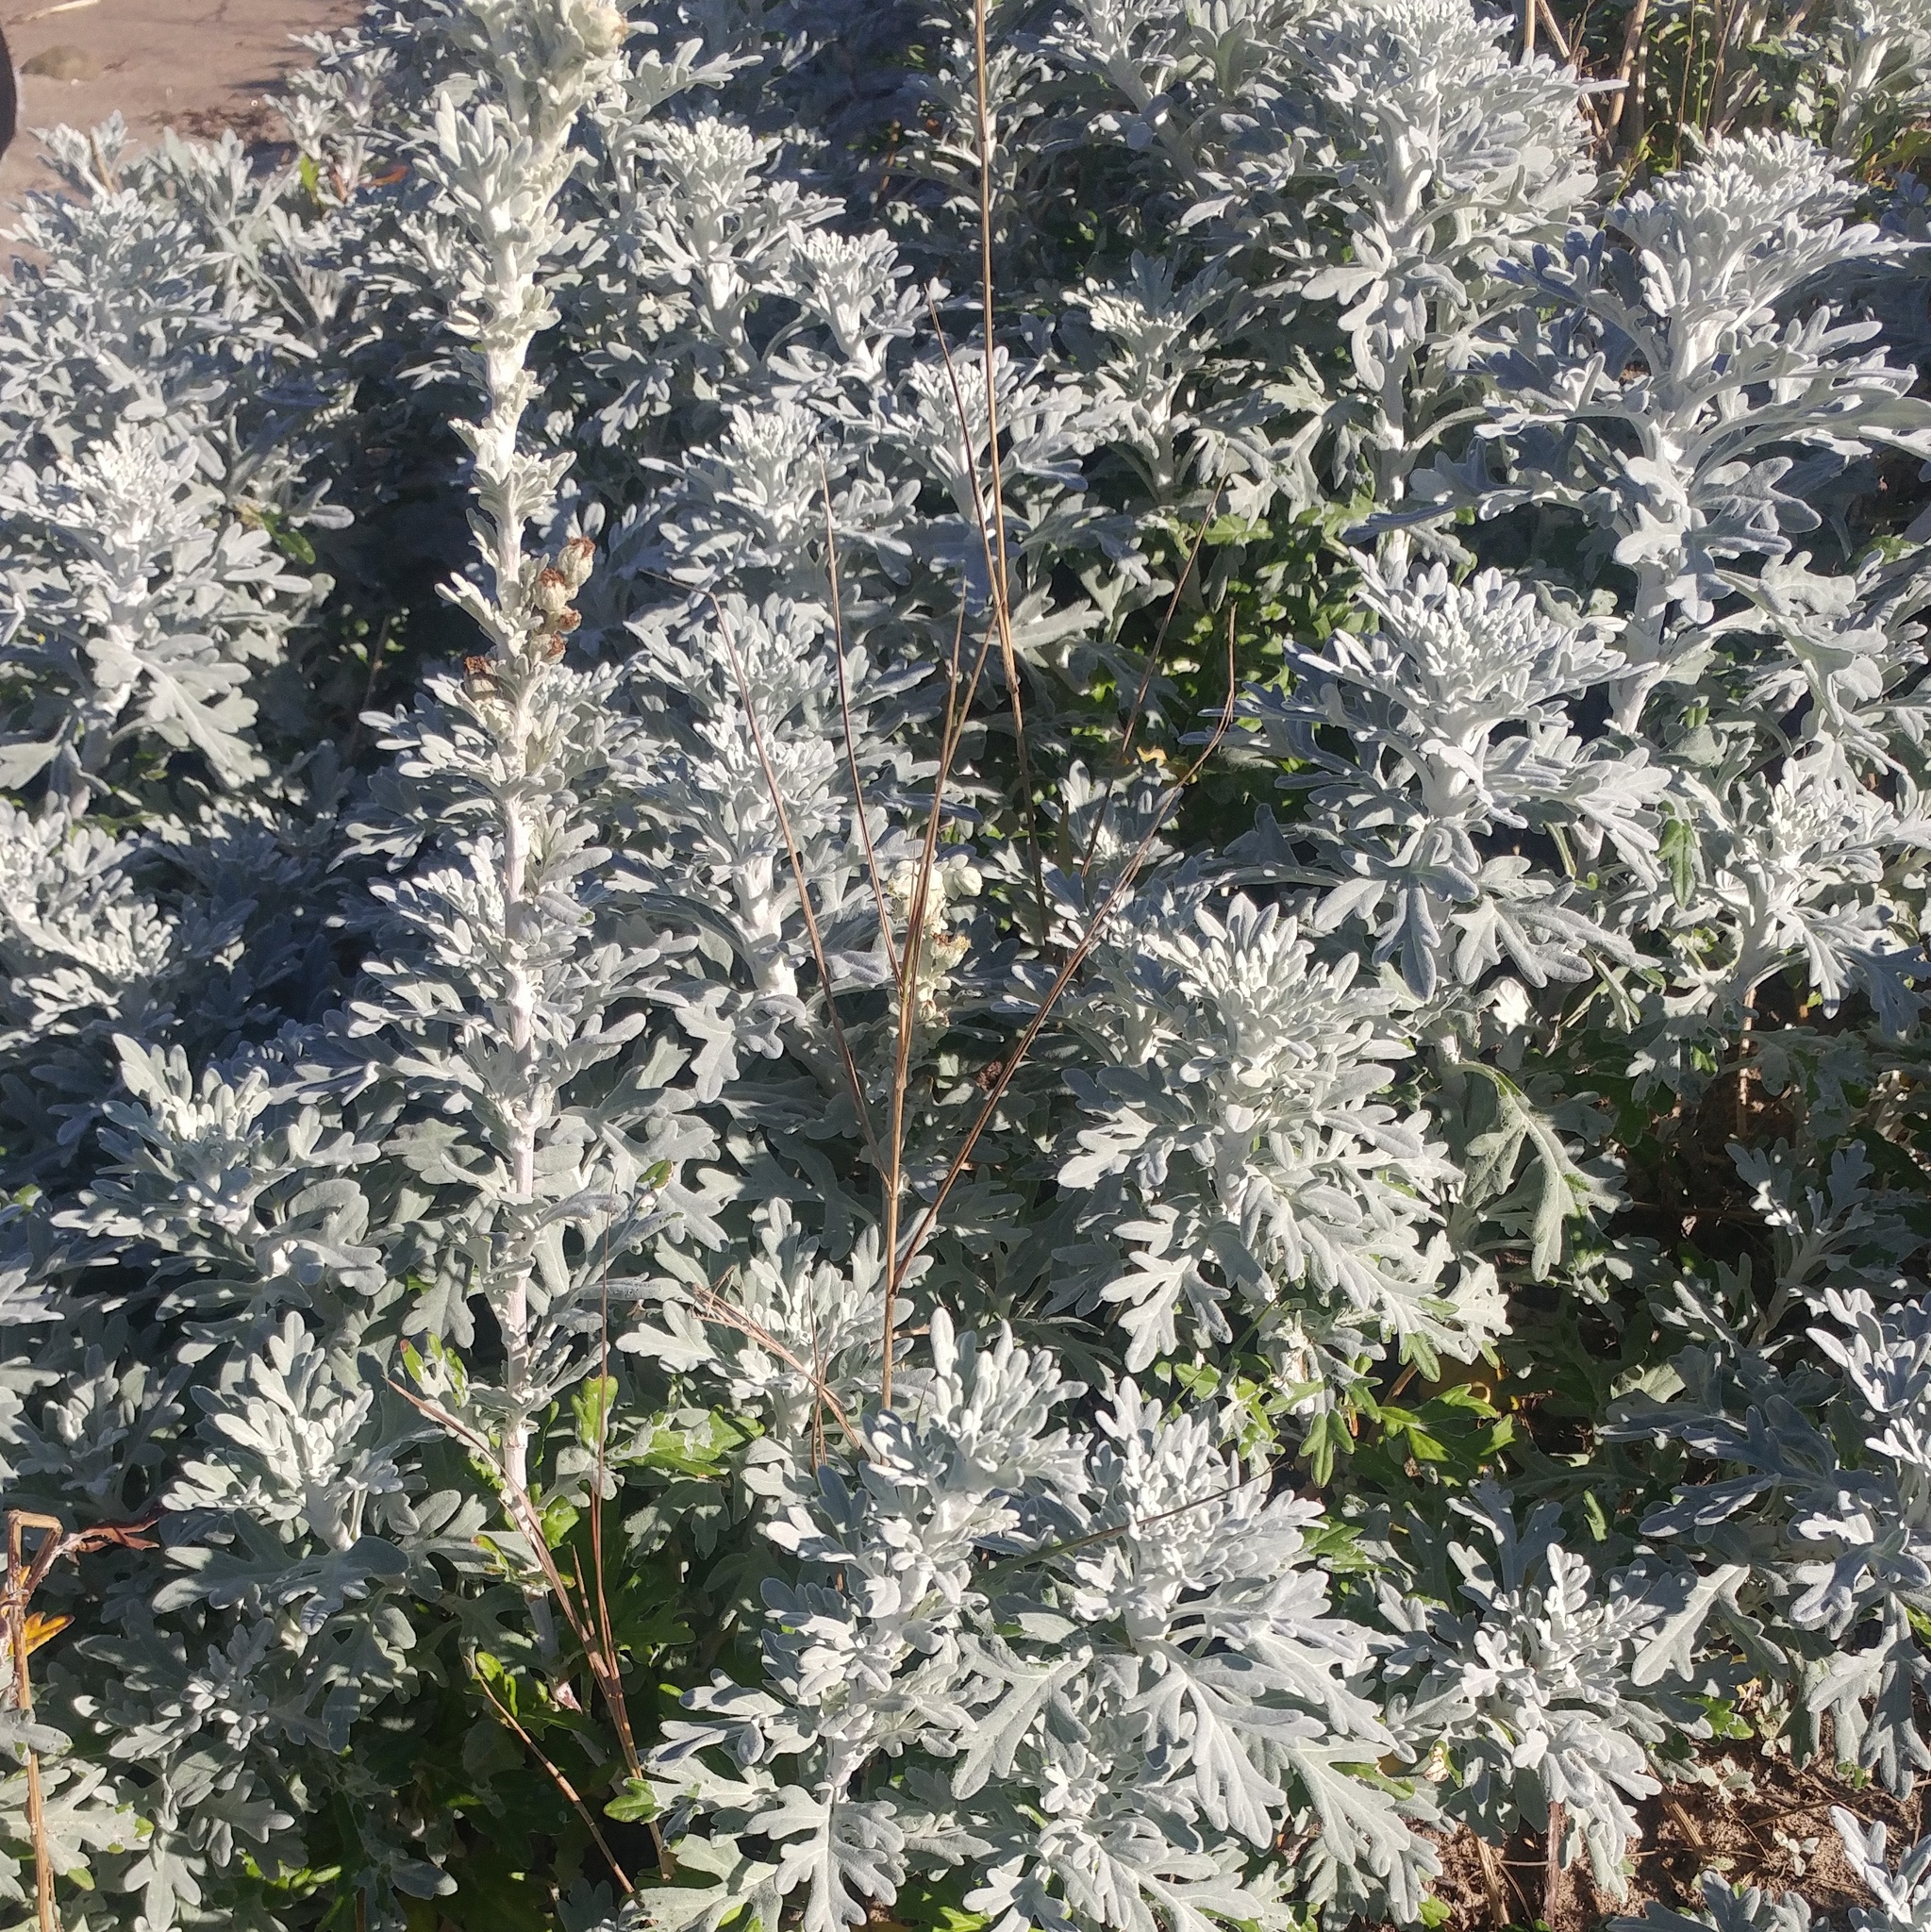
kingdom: Plantae
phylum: Tracheophyta
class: Magnoliopsida
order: Asterales
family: Asteraceae
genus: Artemisia
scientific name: Artemisia stelleriana
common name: Beach wormwood
